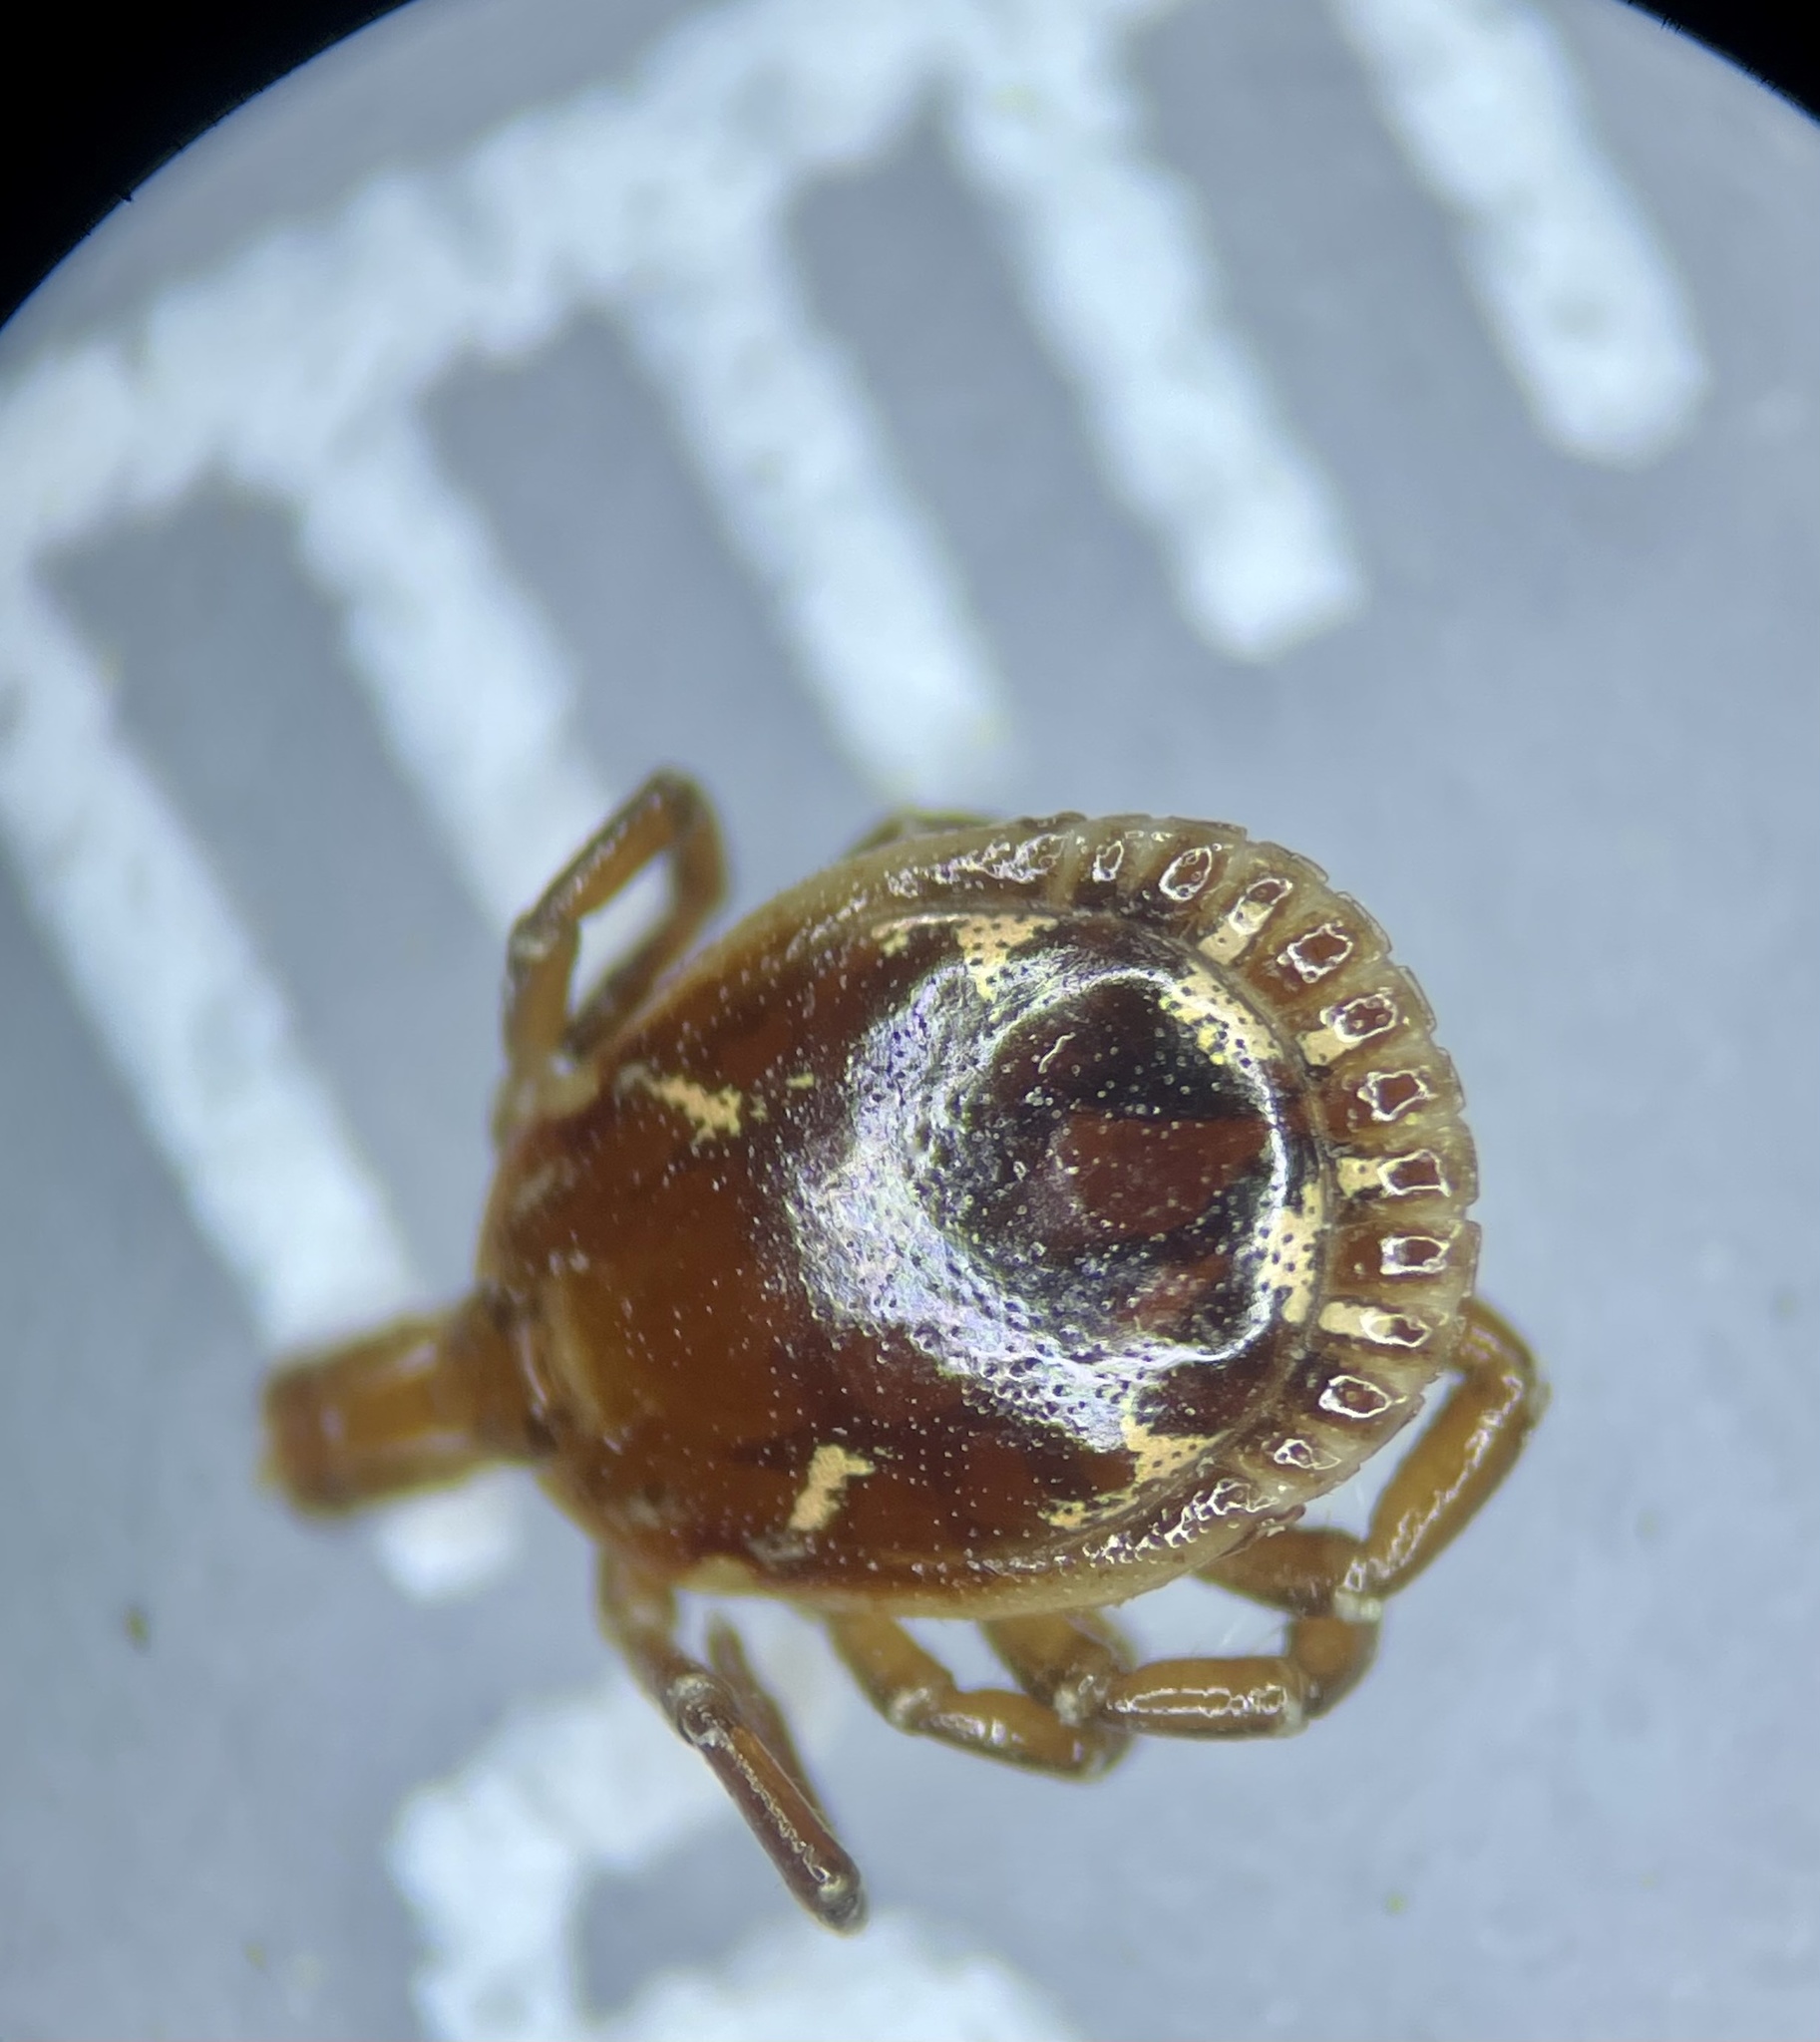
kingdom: Animalia
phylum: Arthropoda
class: Arachnida
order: Ixodida
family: Ixodidae
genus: Amblyomma
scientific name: Amblyomma americanum
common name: Lone star tick
